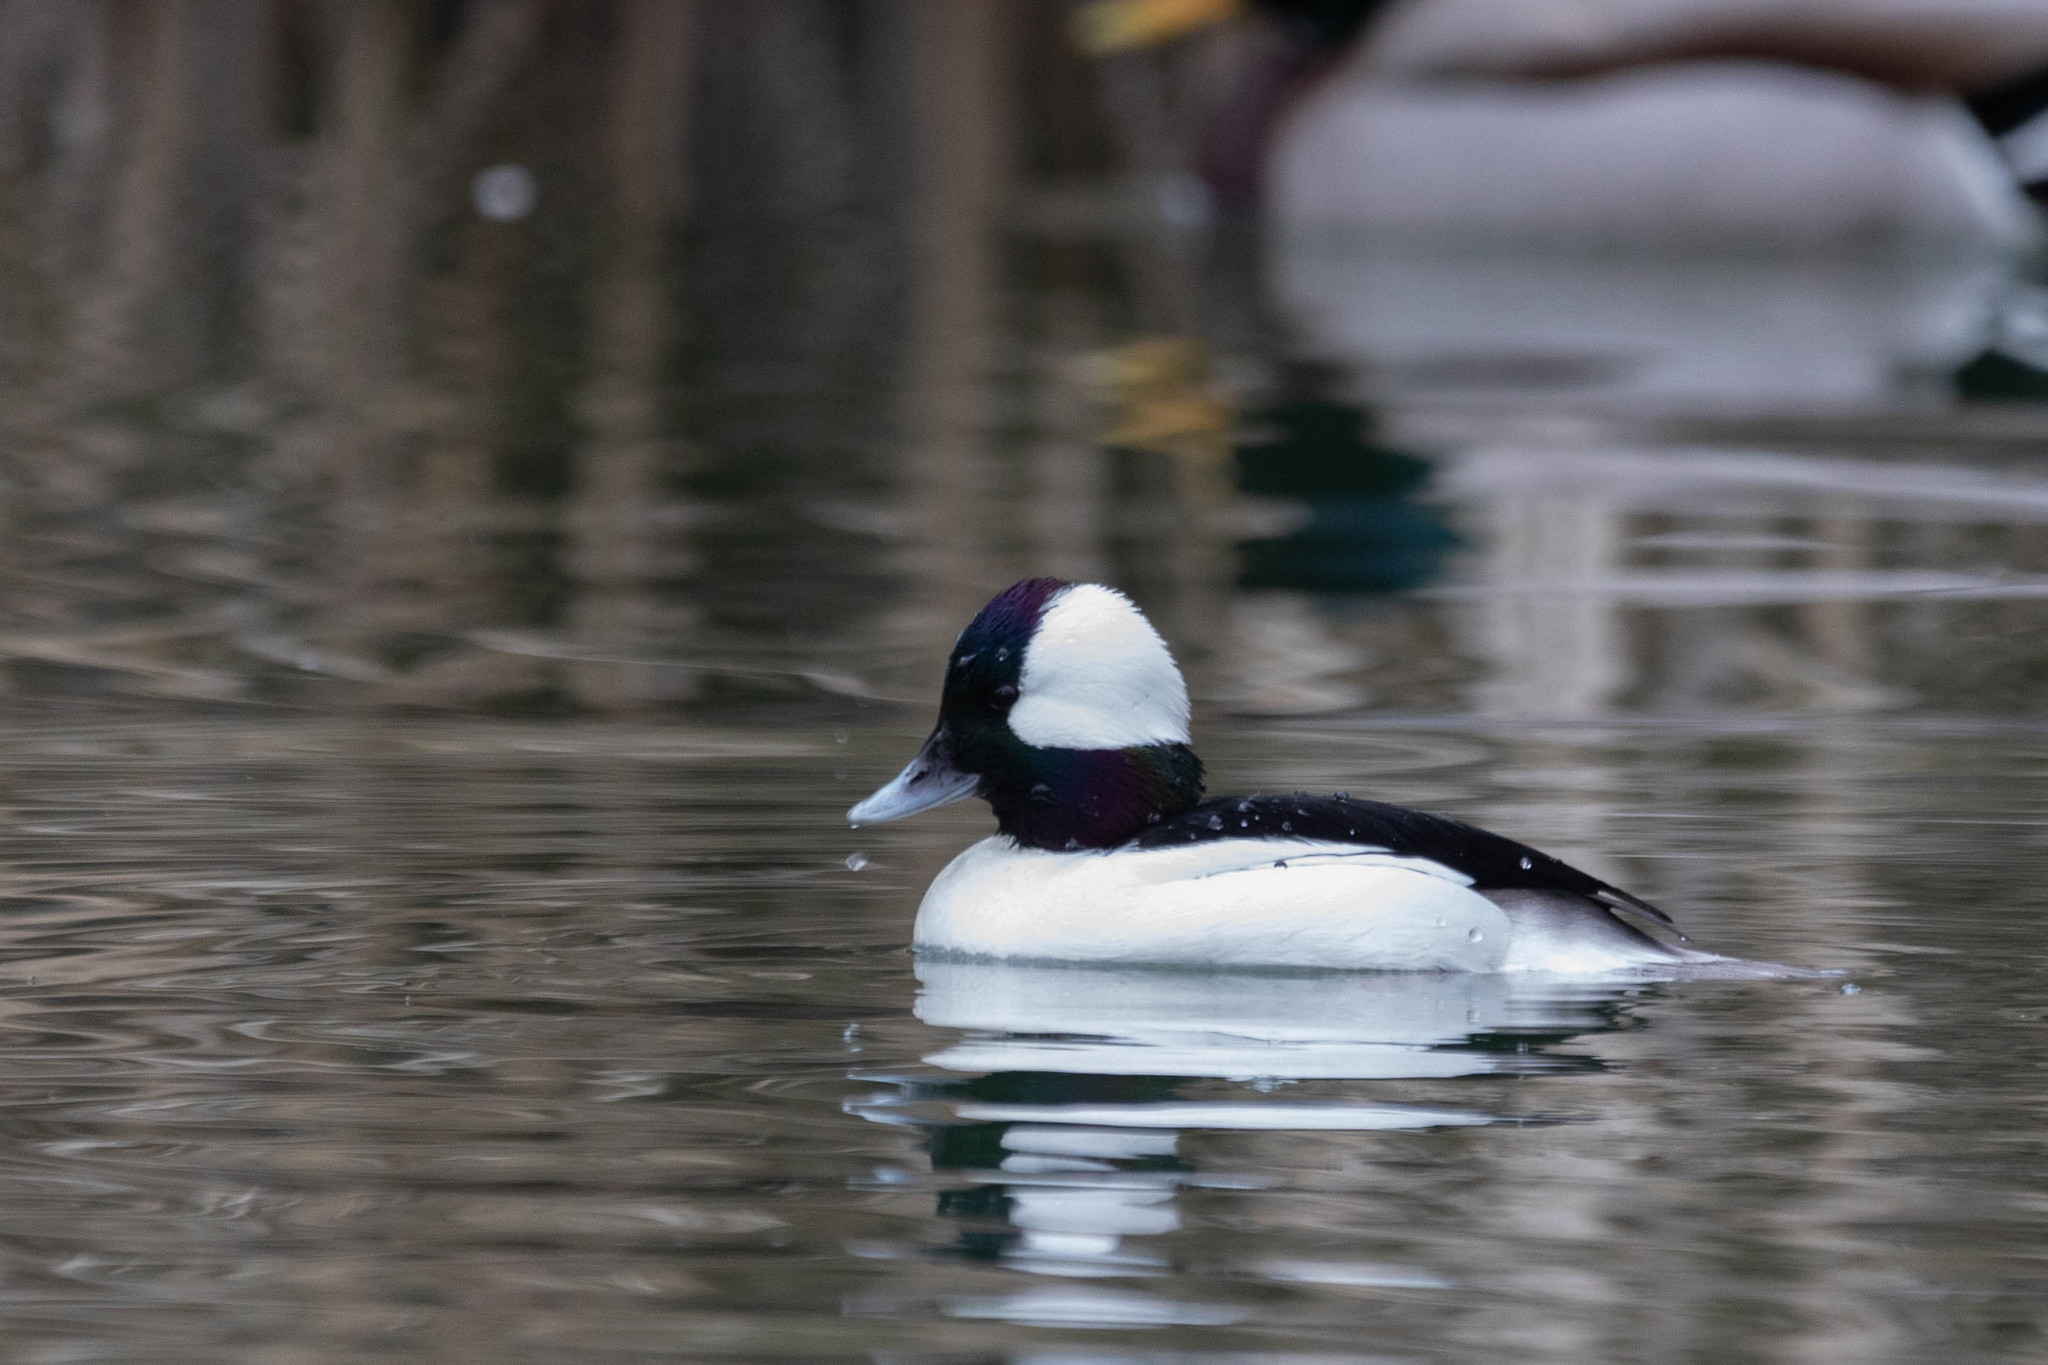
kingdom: Animalia
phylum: Chordata
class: Aves
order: Anseriformes
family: Anatidae
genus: Bucephala
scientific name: Bucephala albeola
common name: Bufflehead
